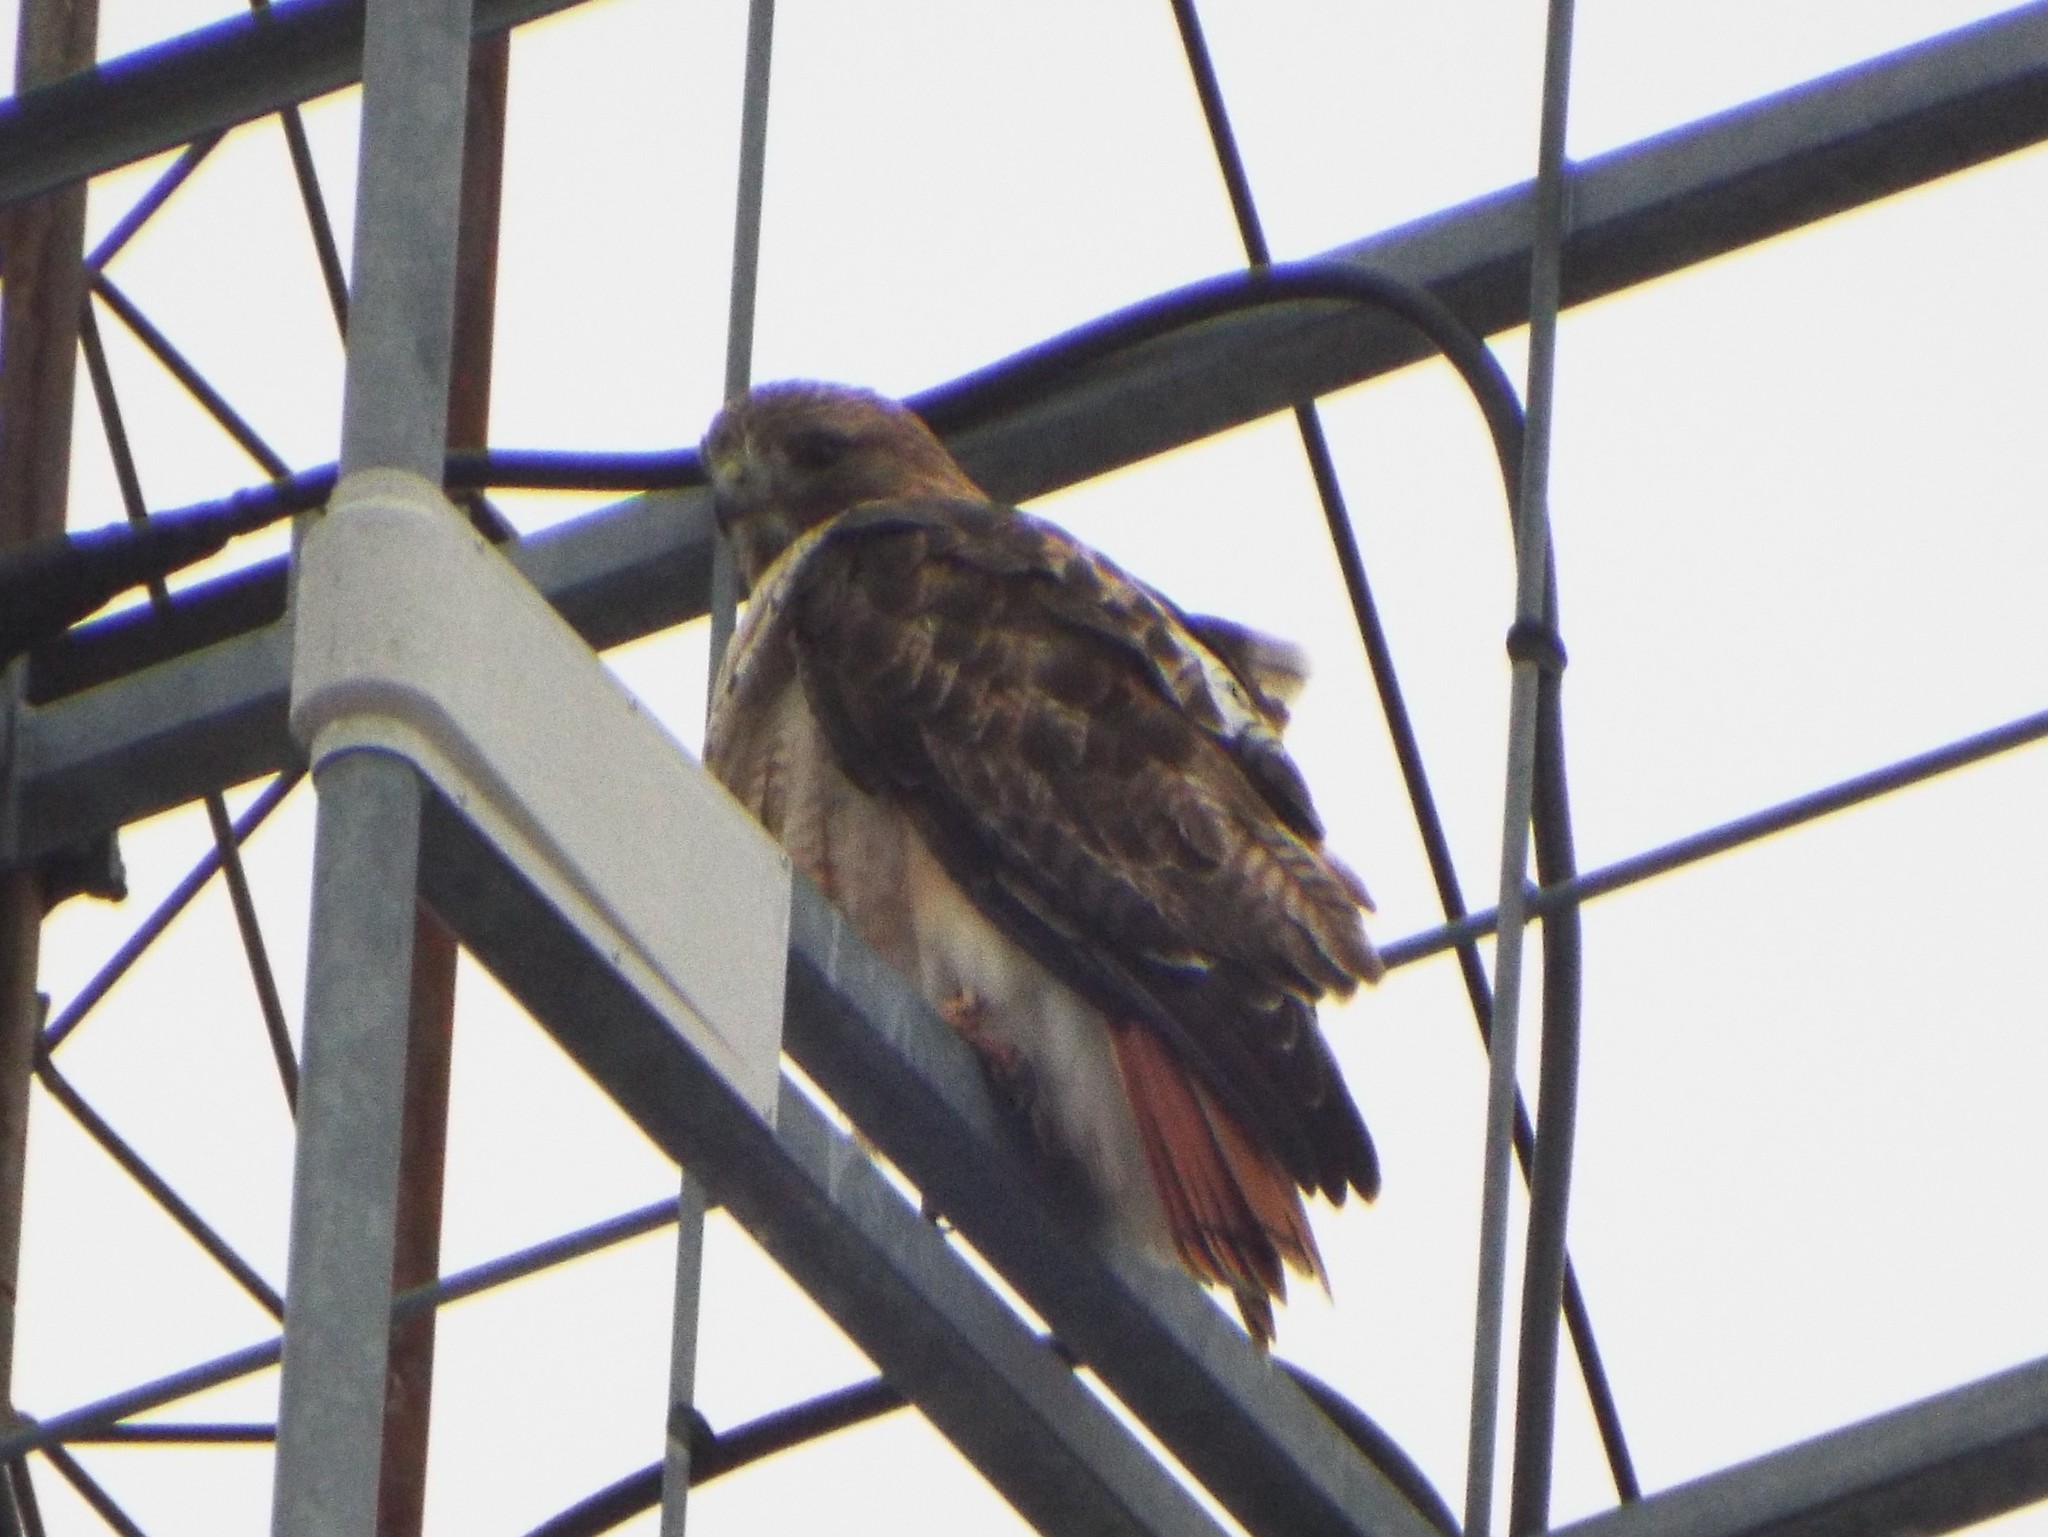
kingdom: Animalia
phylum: Chordata
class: Aves
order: Accipitriformes
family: Accipitridae
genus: Buteo
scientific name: Buteo jamaicensis
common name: Red-tailed hawk
